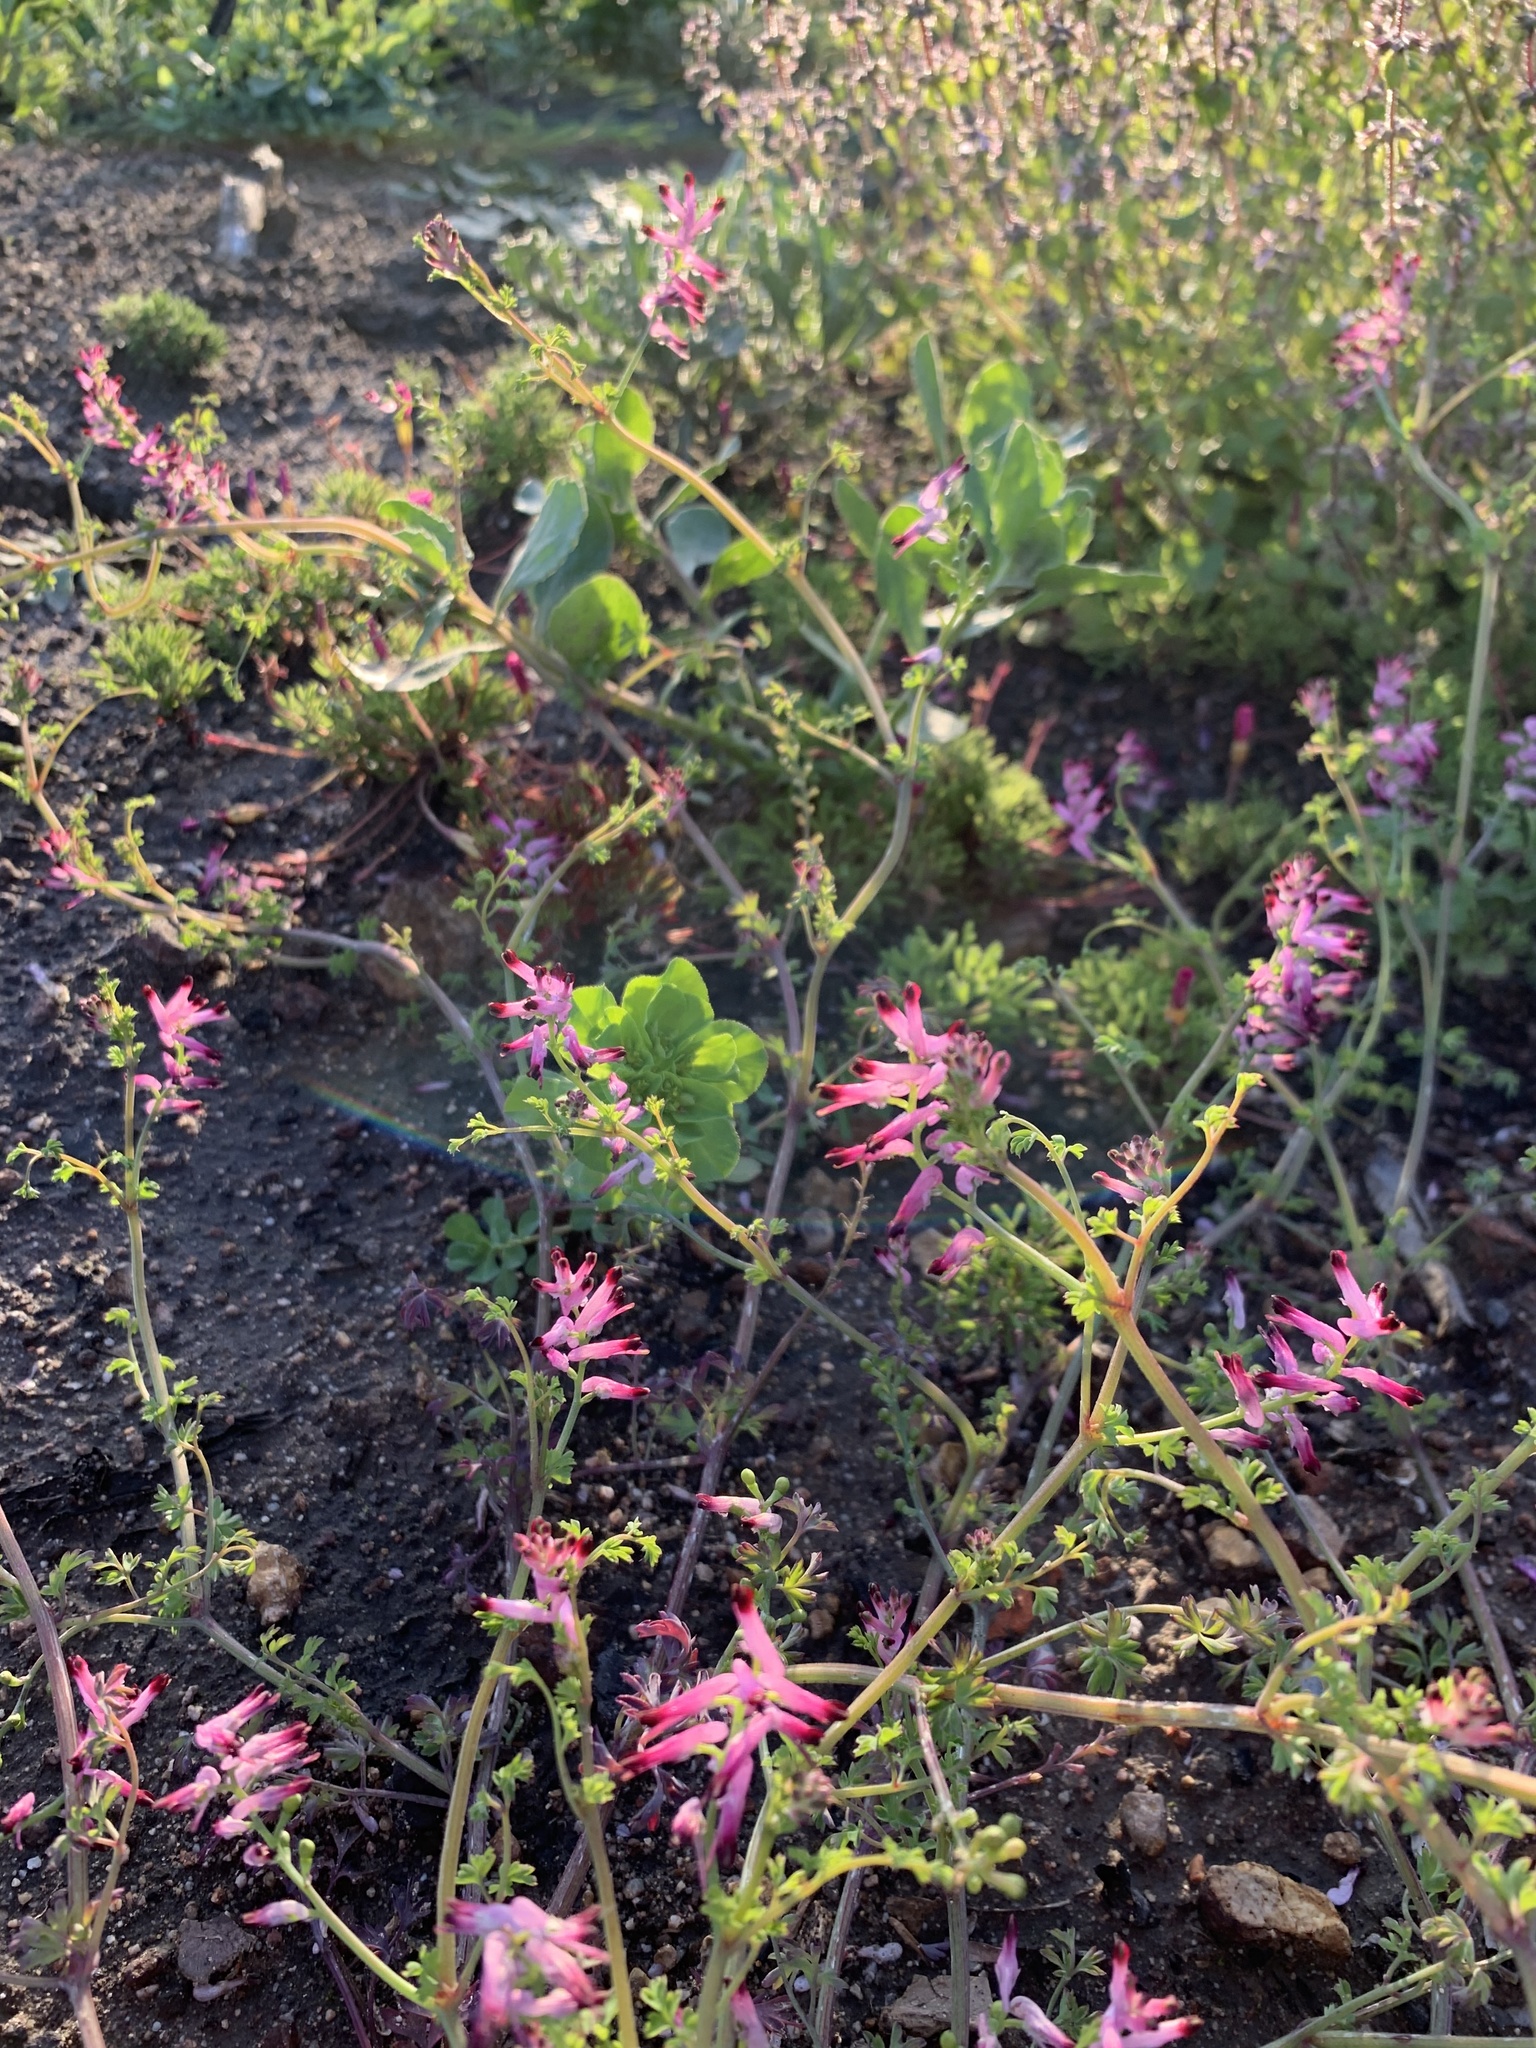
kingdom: Plantae
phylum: Tracheophyta
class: Magnoliopsida
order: Ranunculales
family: Papaveraceae
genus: Fumaria
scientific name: Fumaria muralis
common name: Common ramping-fumitory
